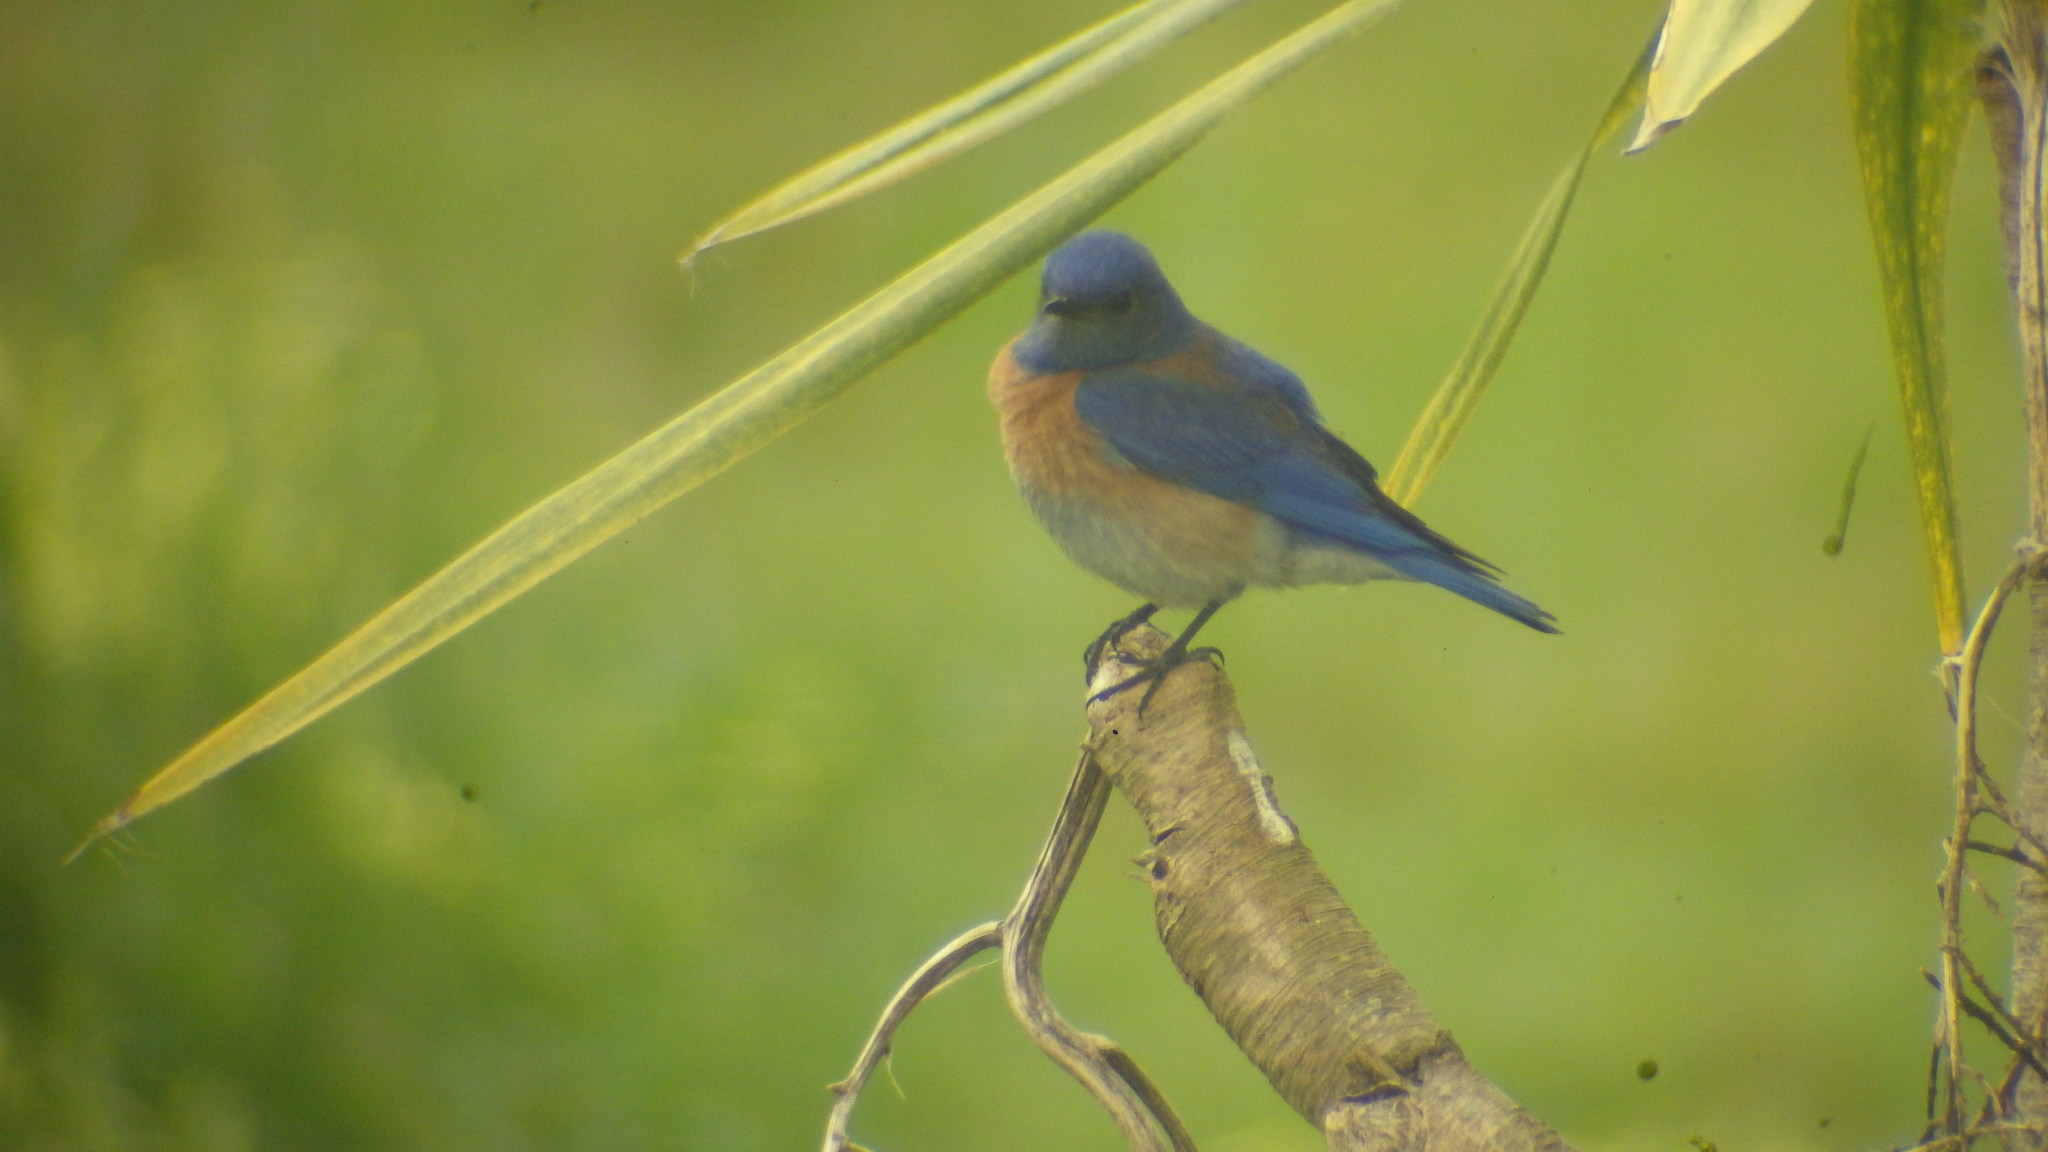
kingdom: Animalia
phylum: Chordata
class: Aves
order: Passeriformes
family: Turdidae
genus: Sialia
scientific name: Sialia mexicana
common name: Western bluebird
